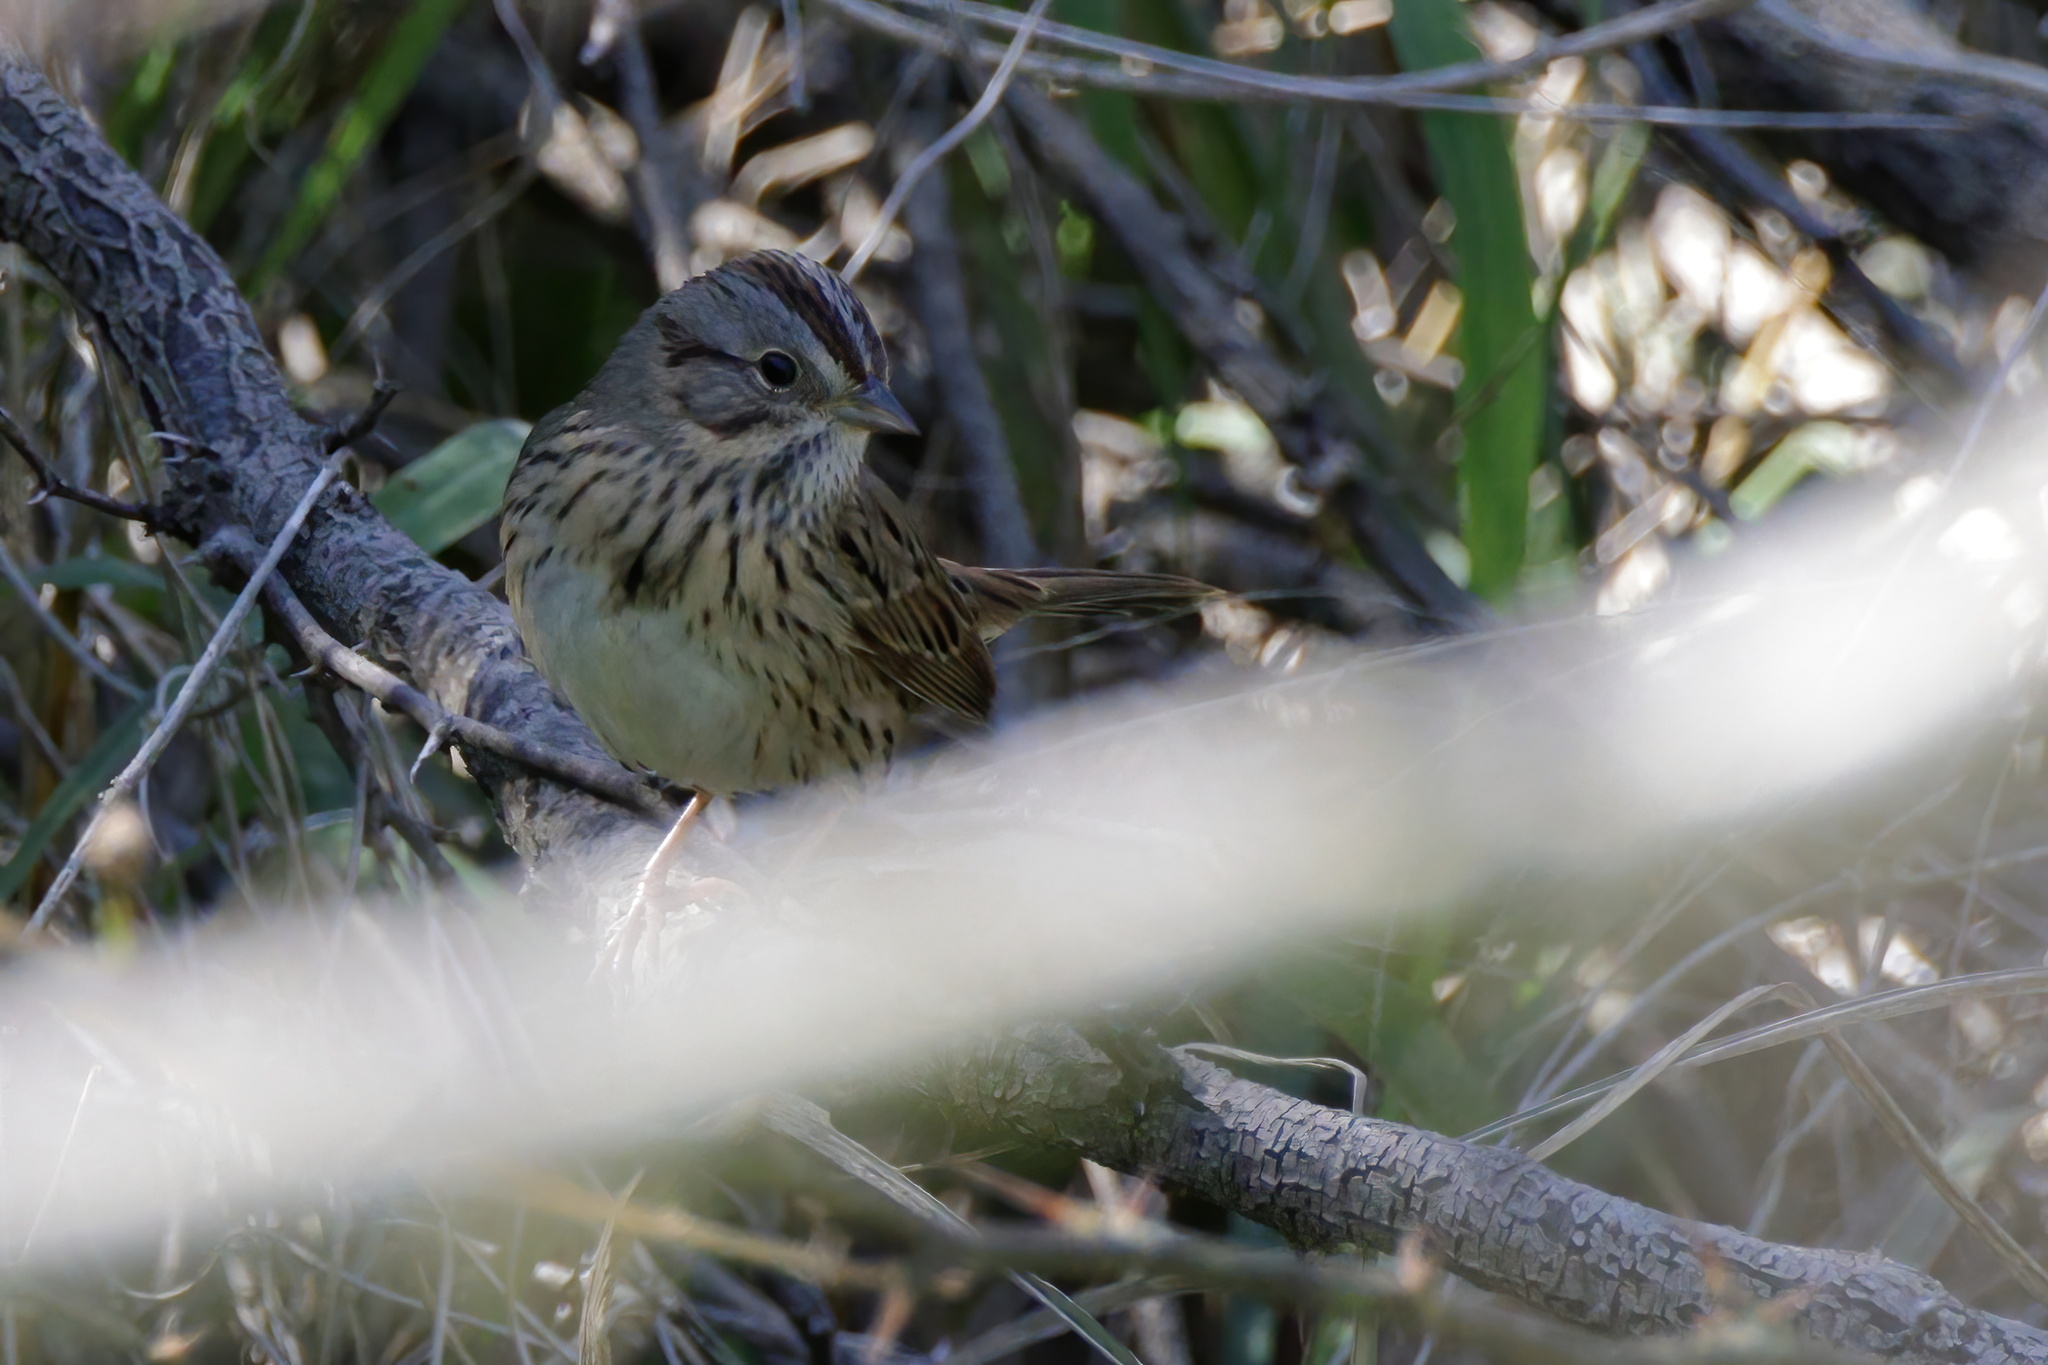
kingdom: Animalia
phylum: Chordata
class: Aves
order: Passeriformes
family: Passerellidae
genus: Melospiza
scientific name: Melospiza lincolnii
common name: Lincoln's sparrow
